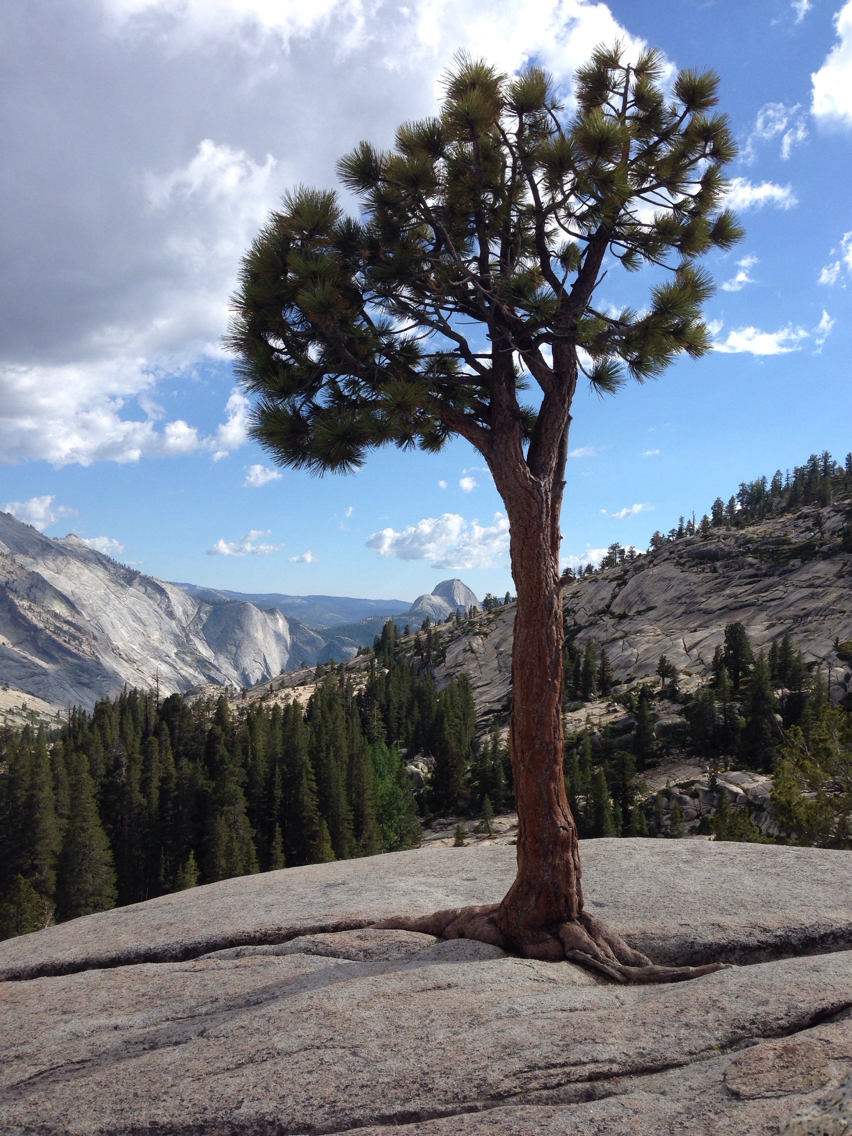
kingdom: Plantae
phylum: Tracheophyta
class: Pinopsida
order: Pinales
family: Pinaceae
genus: Pinus
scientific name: Pinus jeffreyi
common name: Jeffrey pine
